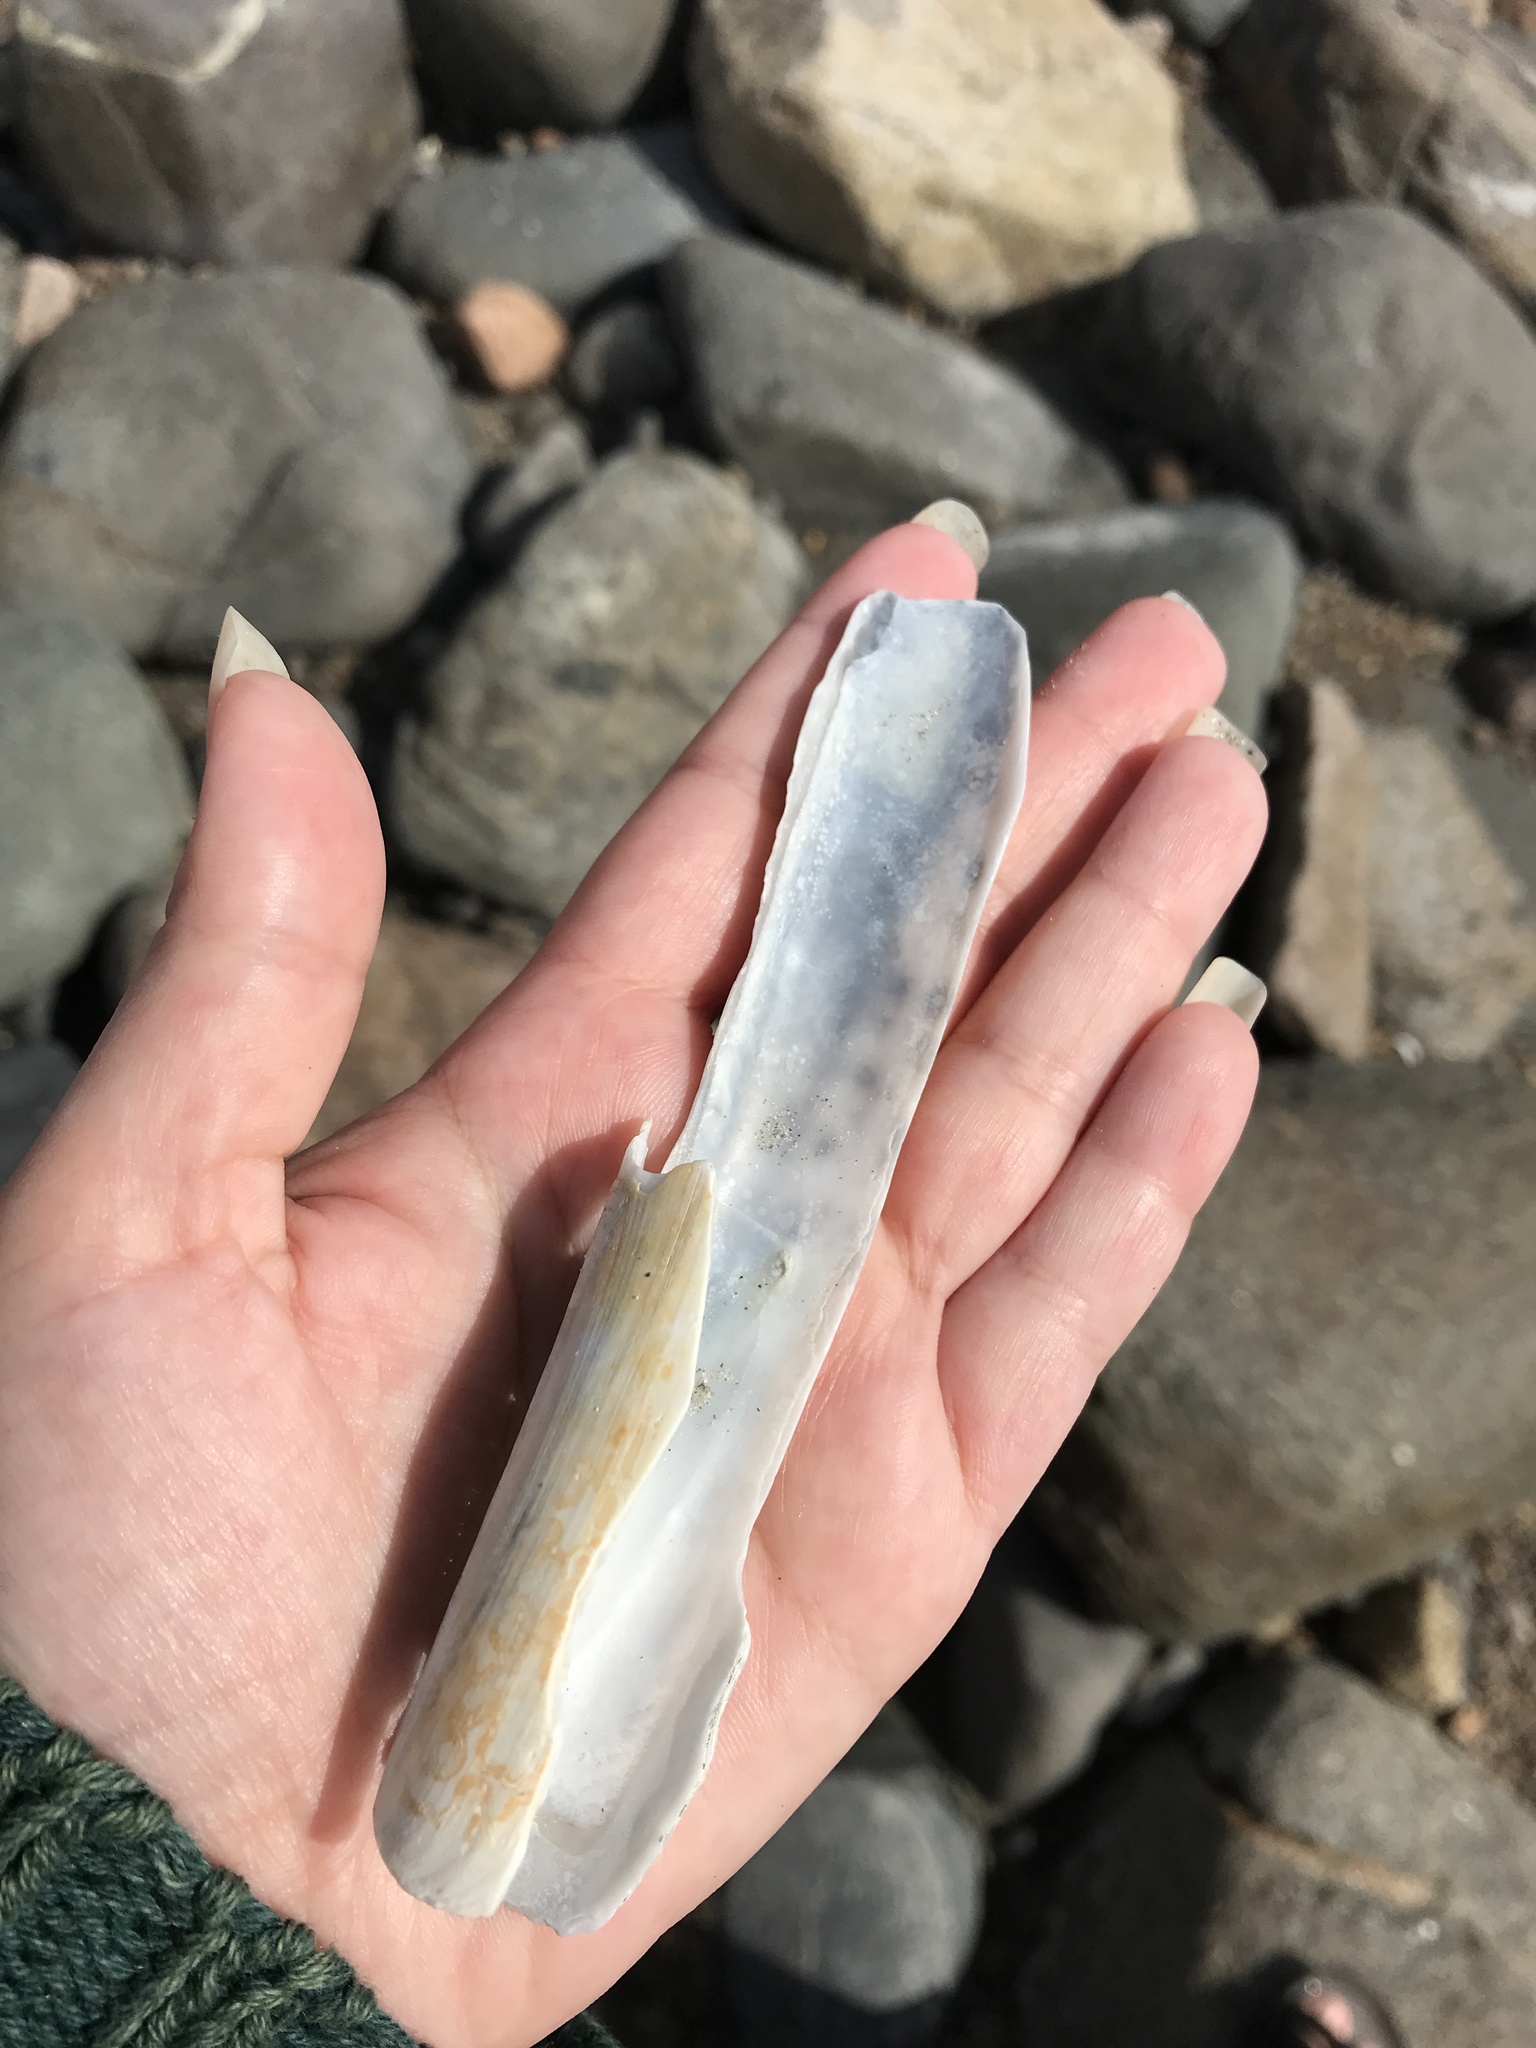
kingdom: Animalia
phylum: Mollusca
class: Bivalvia
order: Adapedonta
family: Pharidae
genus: Ensis
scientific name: Ensis leei
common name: American jack knife clam
